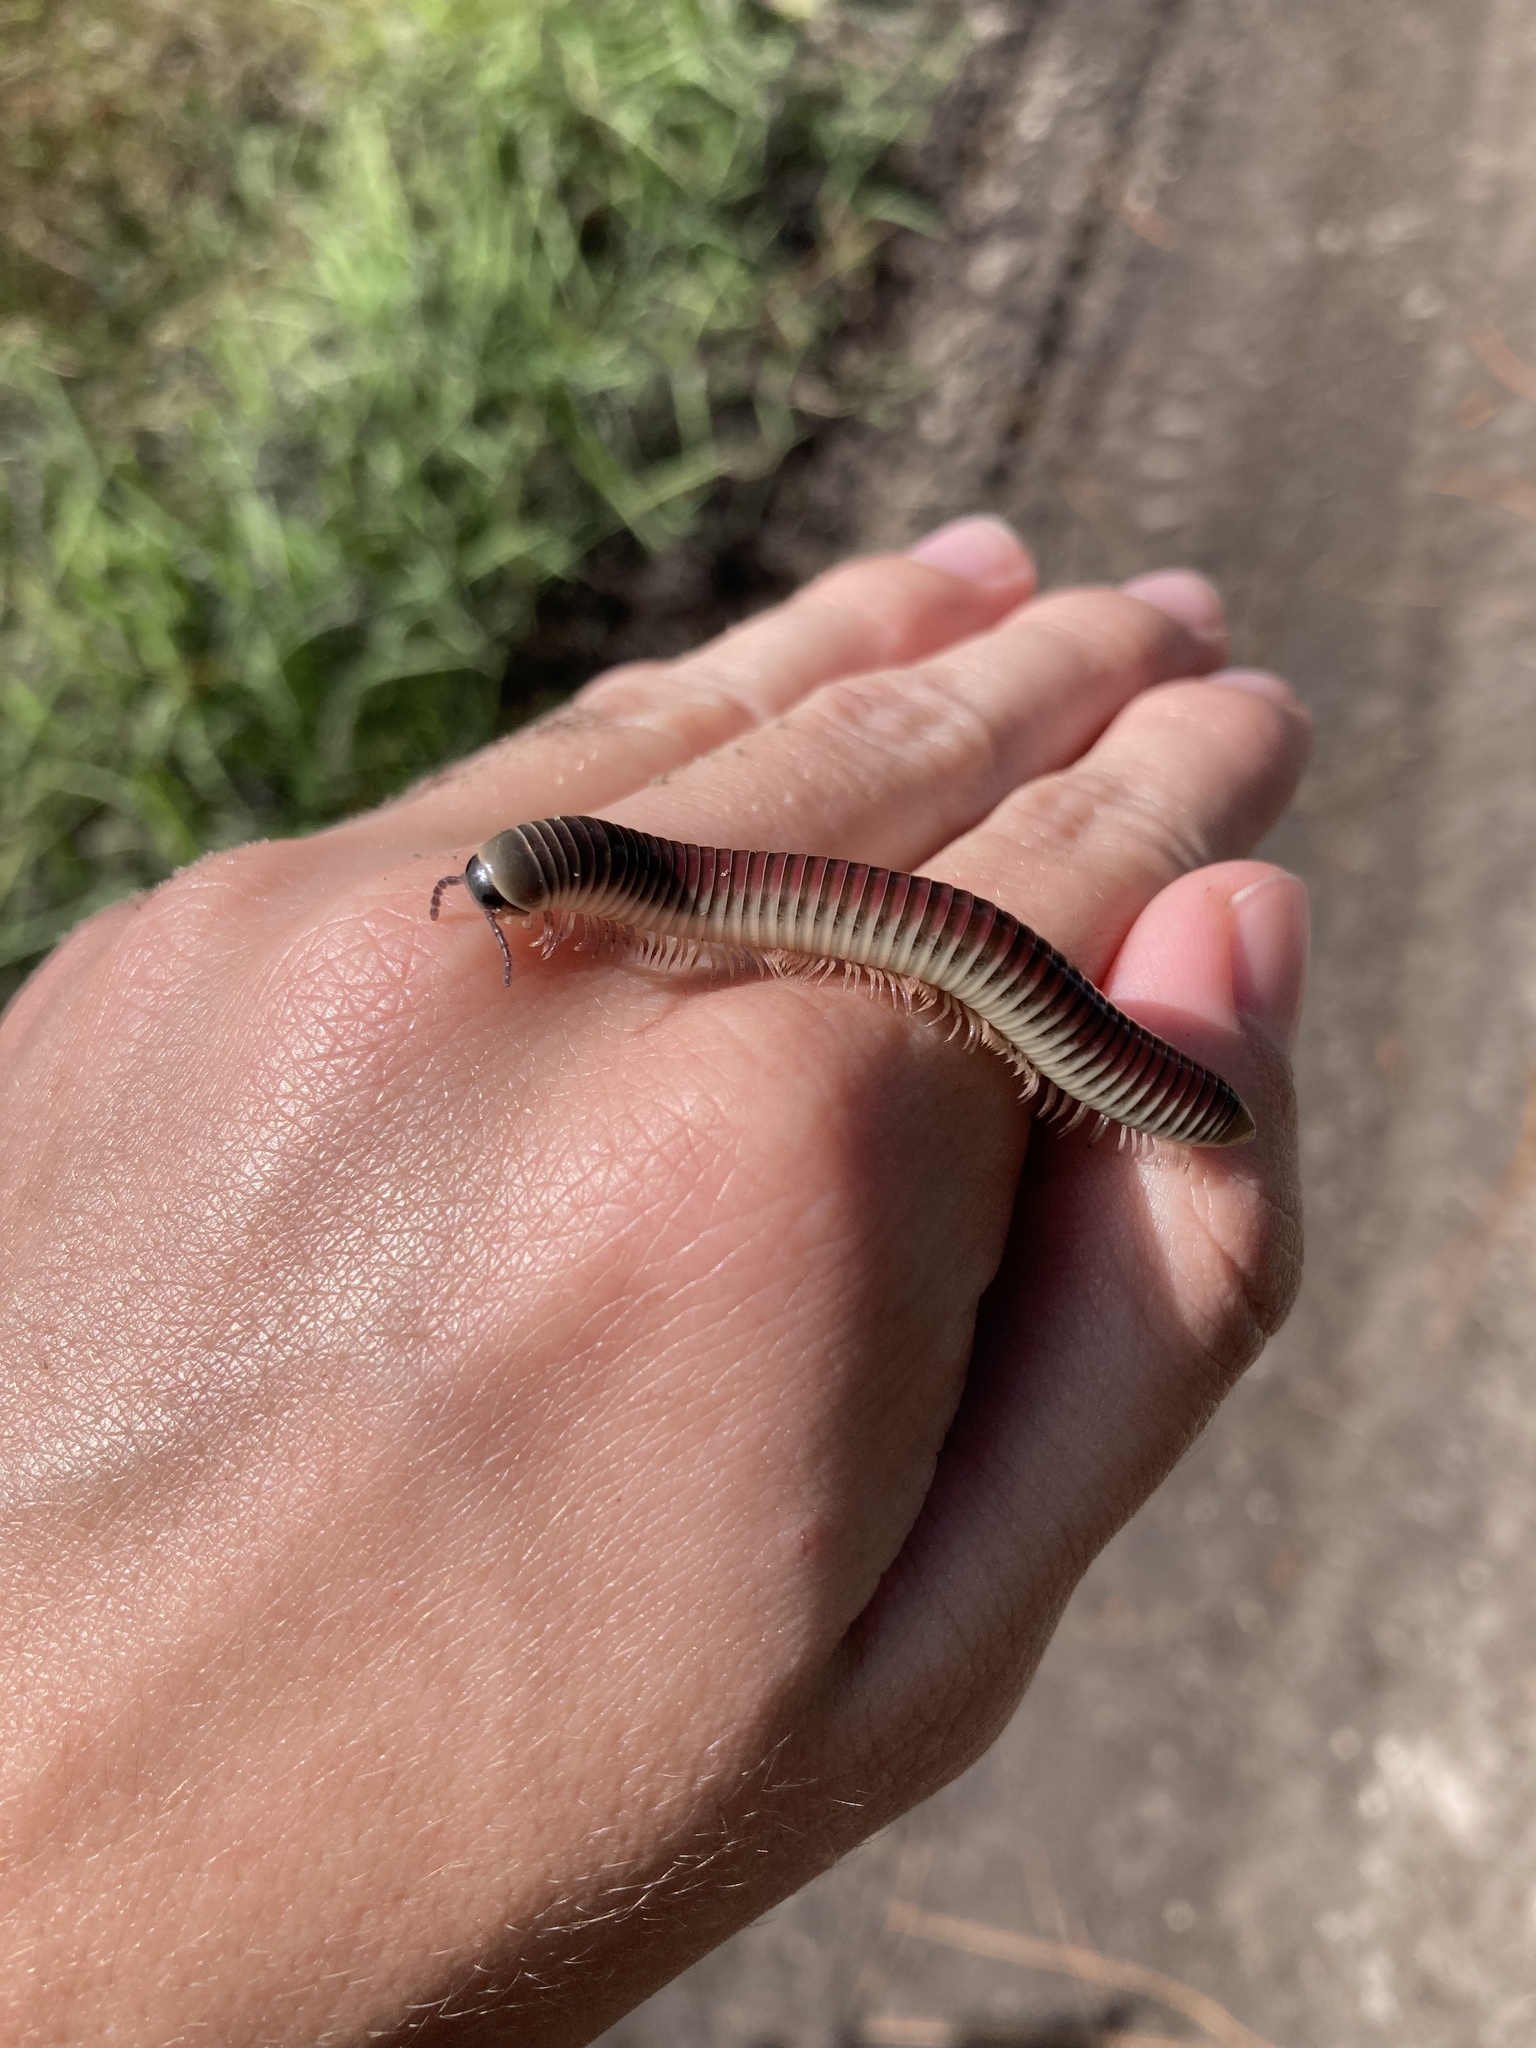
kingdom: Animalia
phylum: Arthropoda
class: Diplopoda
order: Spirobolida
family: Spirobolidae
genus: Chicobolus
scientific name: Chicobolus spinigerus
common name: Florida ivory millipede
